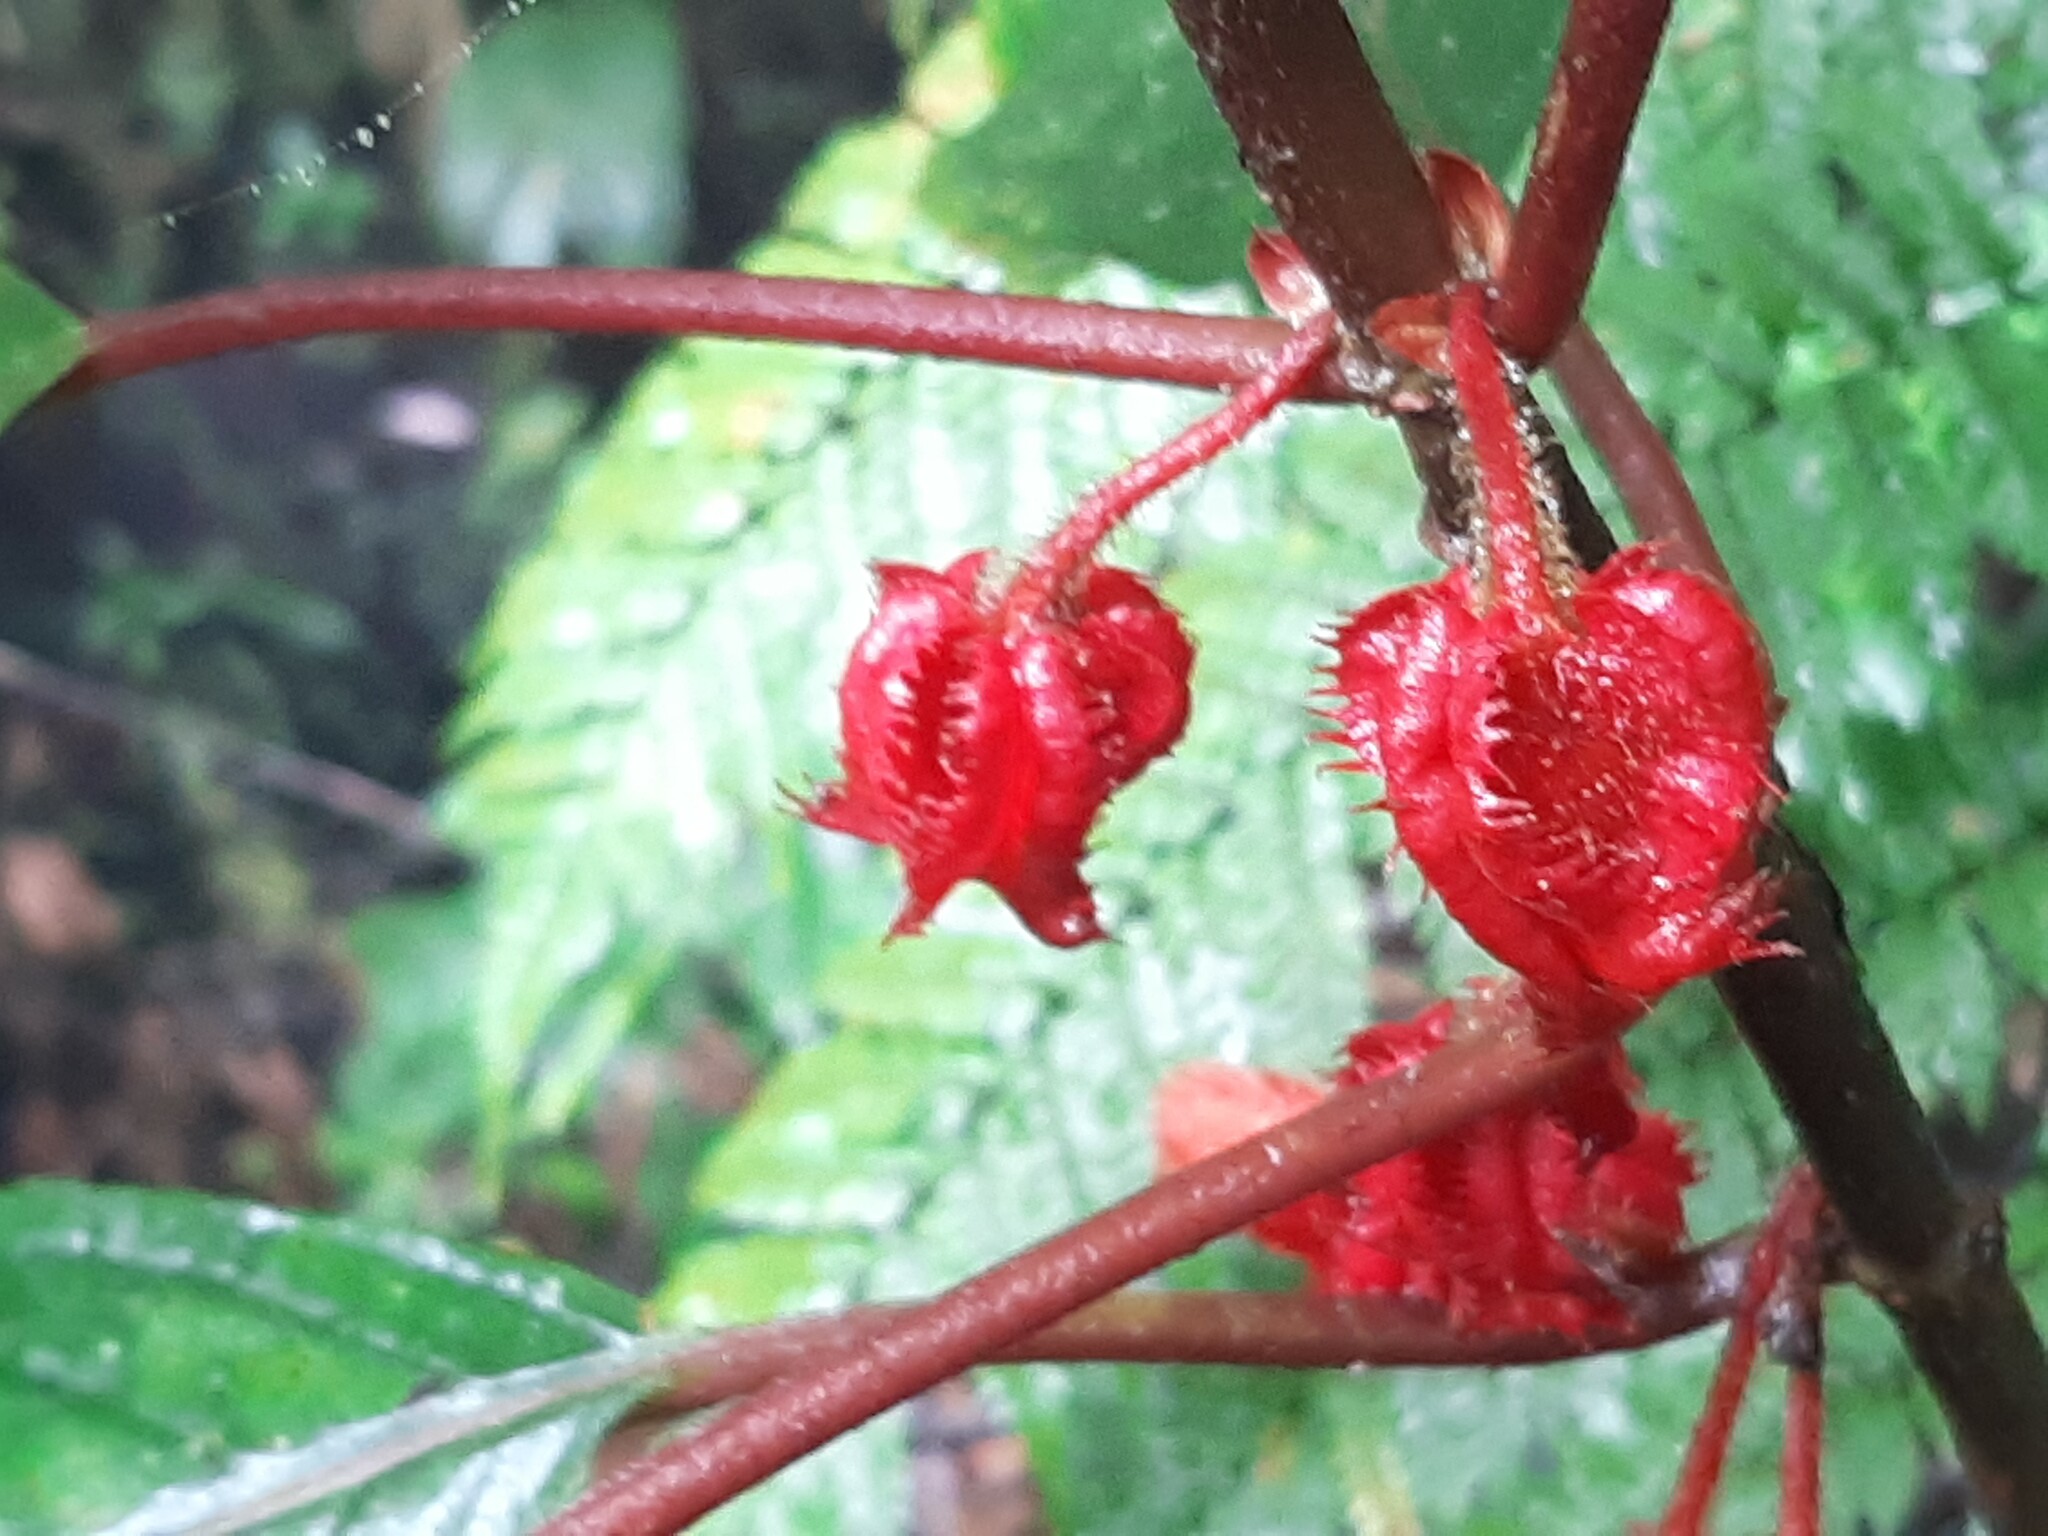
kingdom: Plantae
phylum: Tracheophyta
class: Magnoliopsida
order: Lamiales
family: Gesneriaceae
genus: Glossoloma
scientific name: Glossoloma cucullatum
